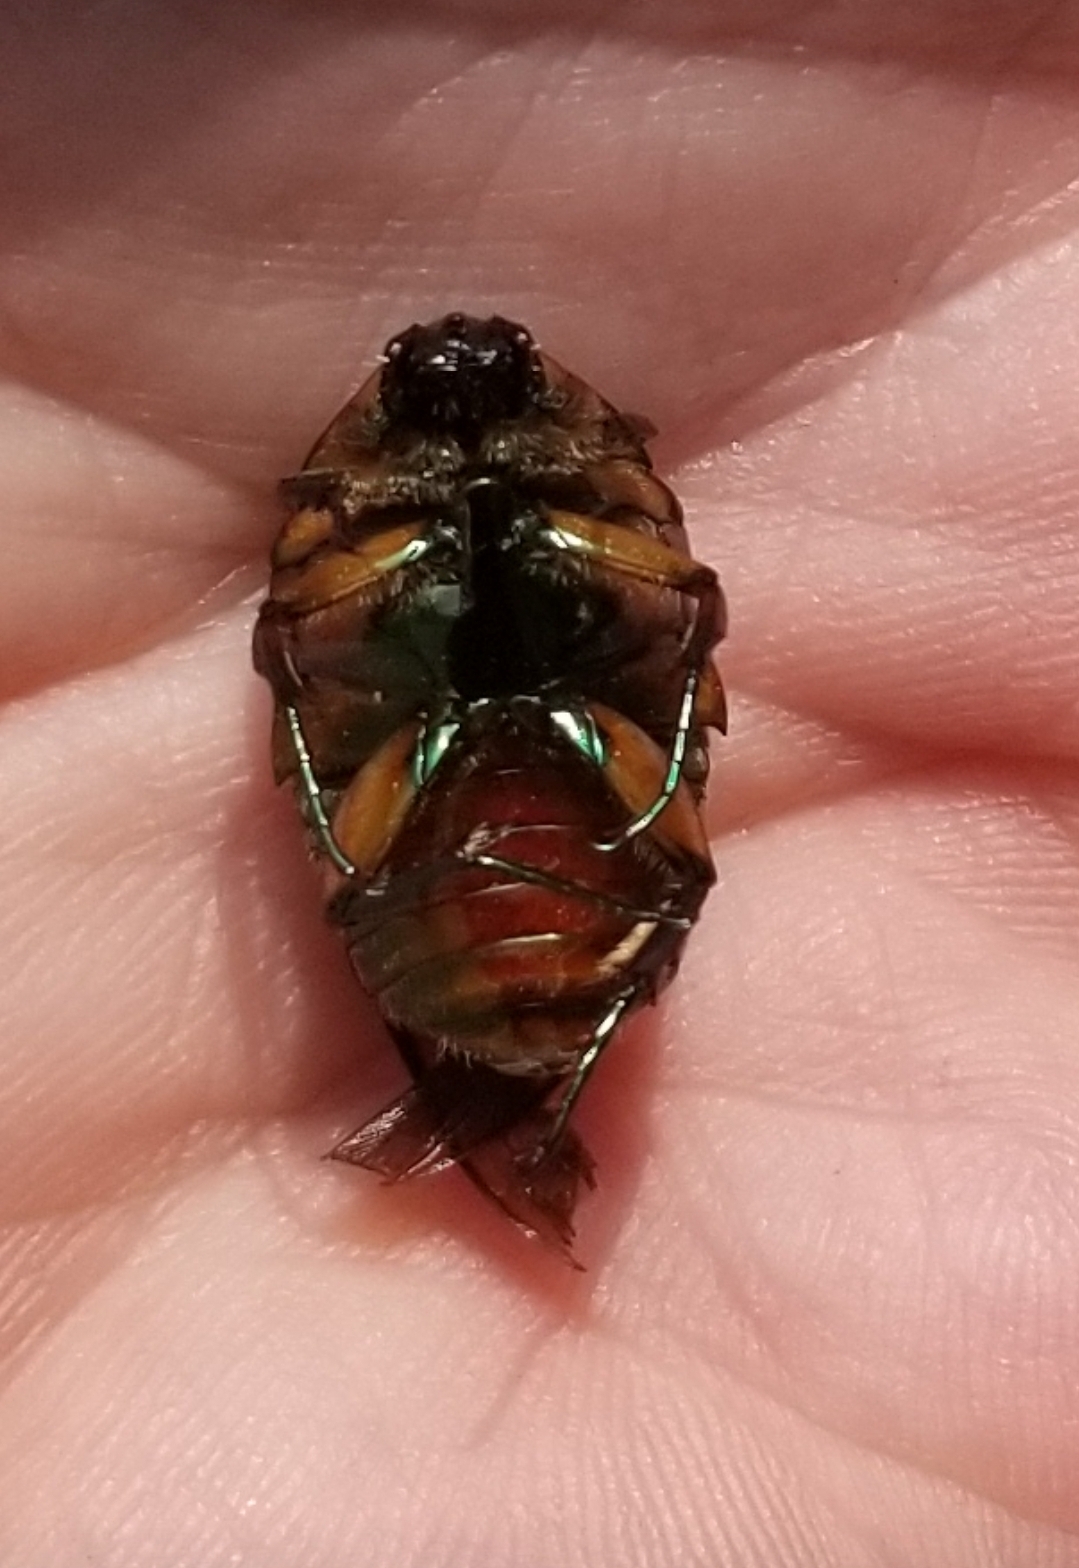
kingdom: Animalia
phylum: Arthropoda
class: Insecta
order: Coleoptera
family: Scarabaeidae
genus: Cotinis
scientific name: Cotinis nitida
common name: Common green june beetle
